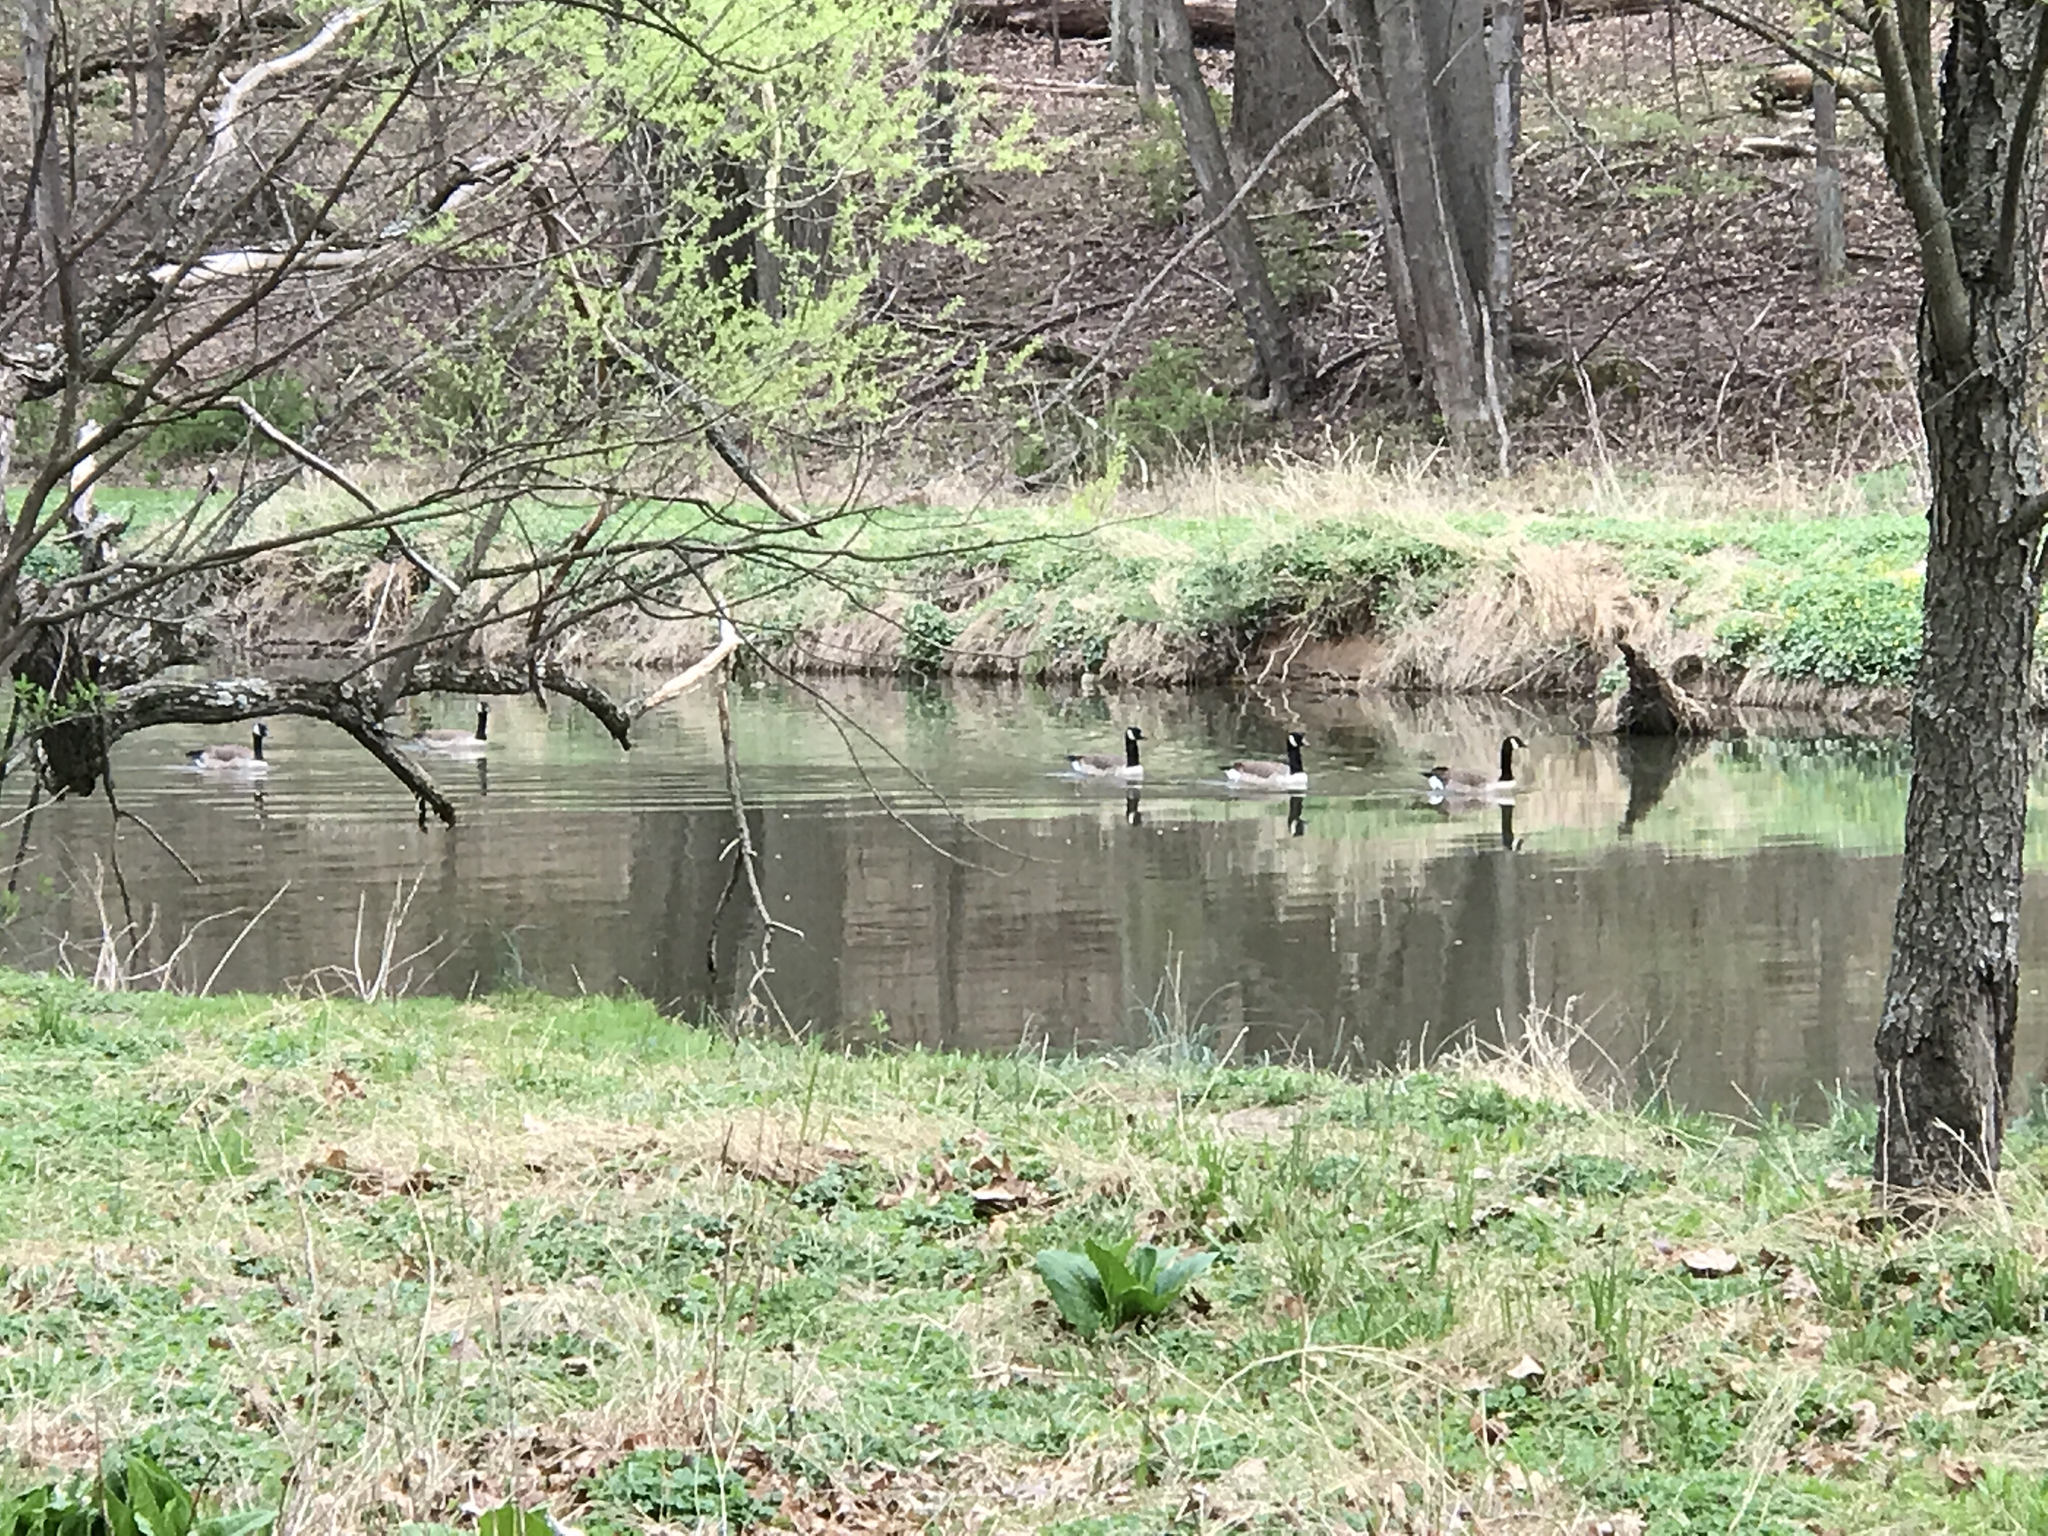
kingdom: Animalia
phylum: Chordata
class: Aves
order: Anseriformes
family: Anatidae
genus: Branta
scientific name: Branta canadensis
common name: Canada goose
